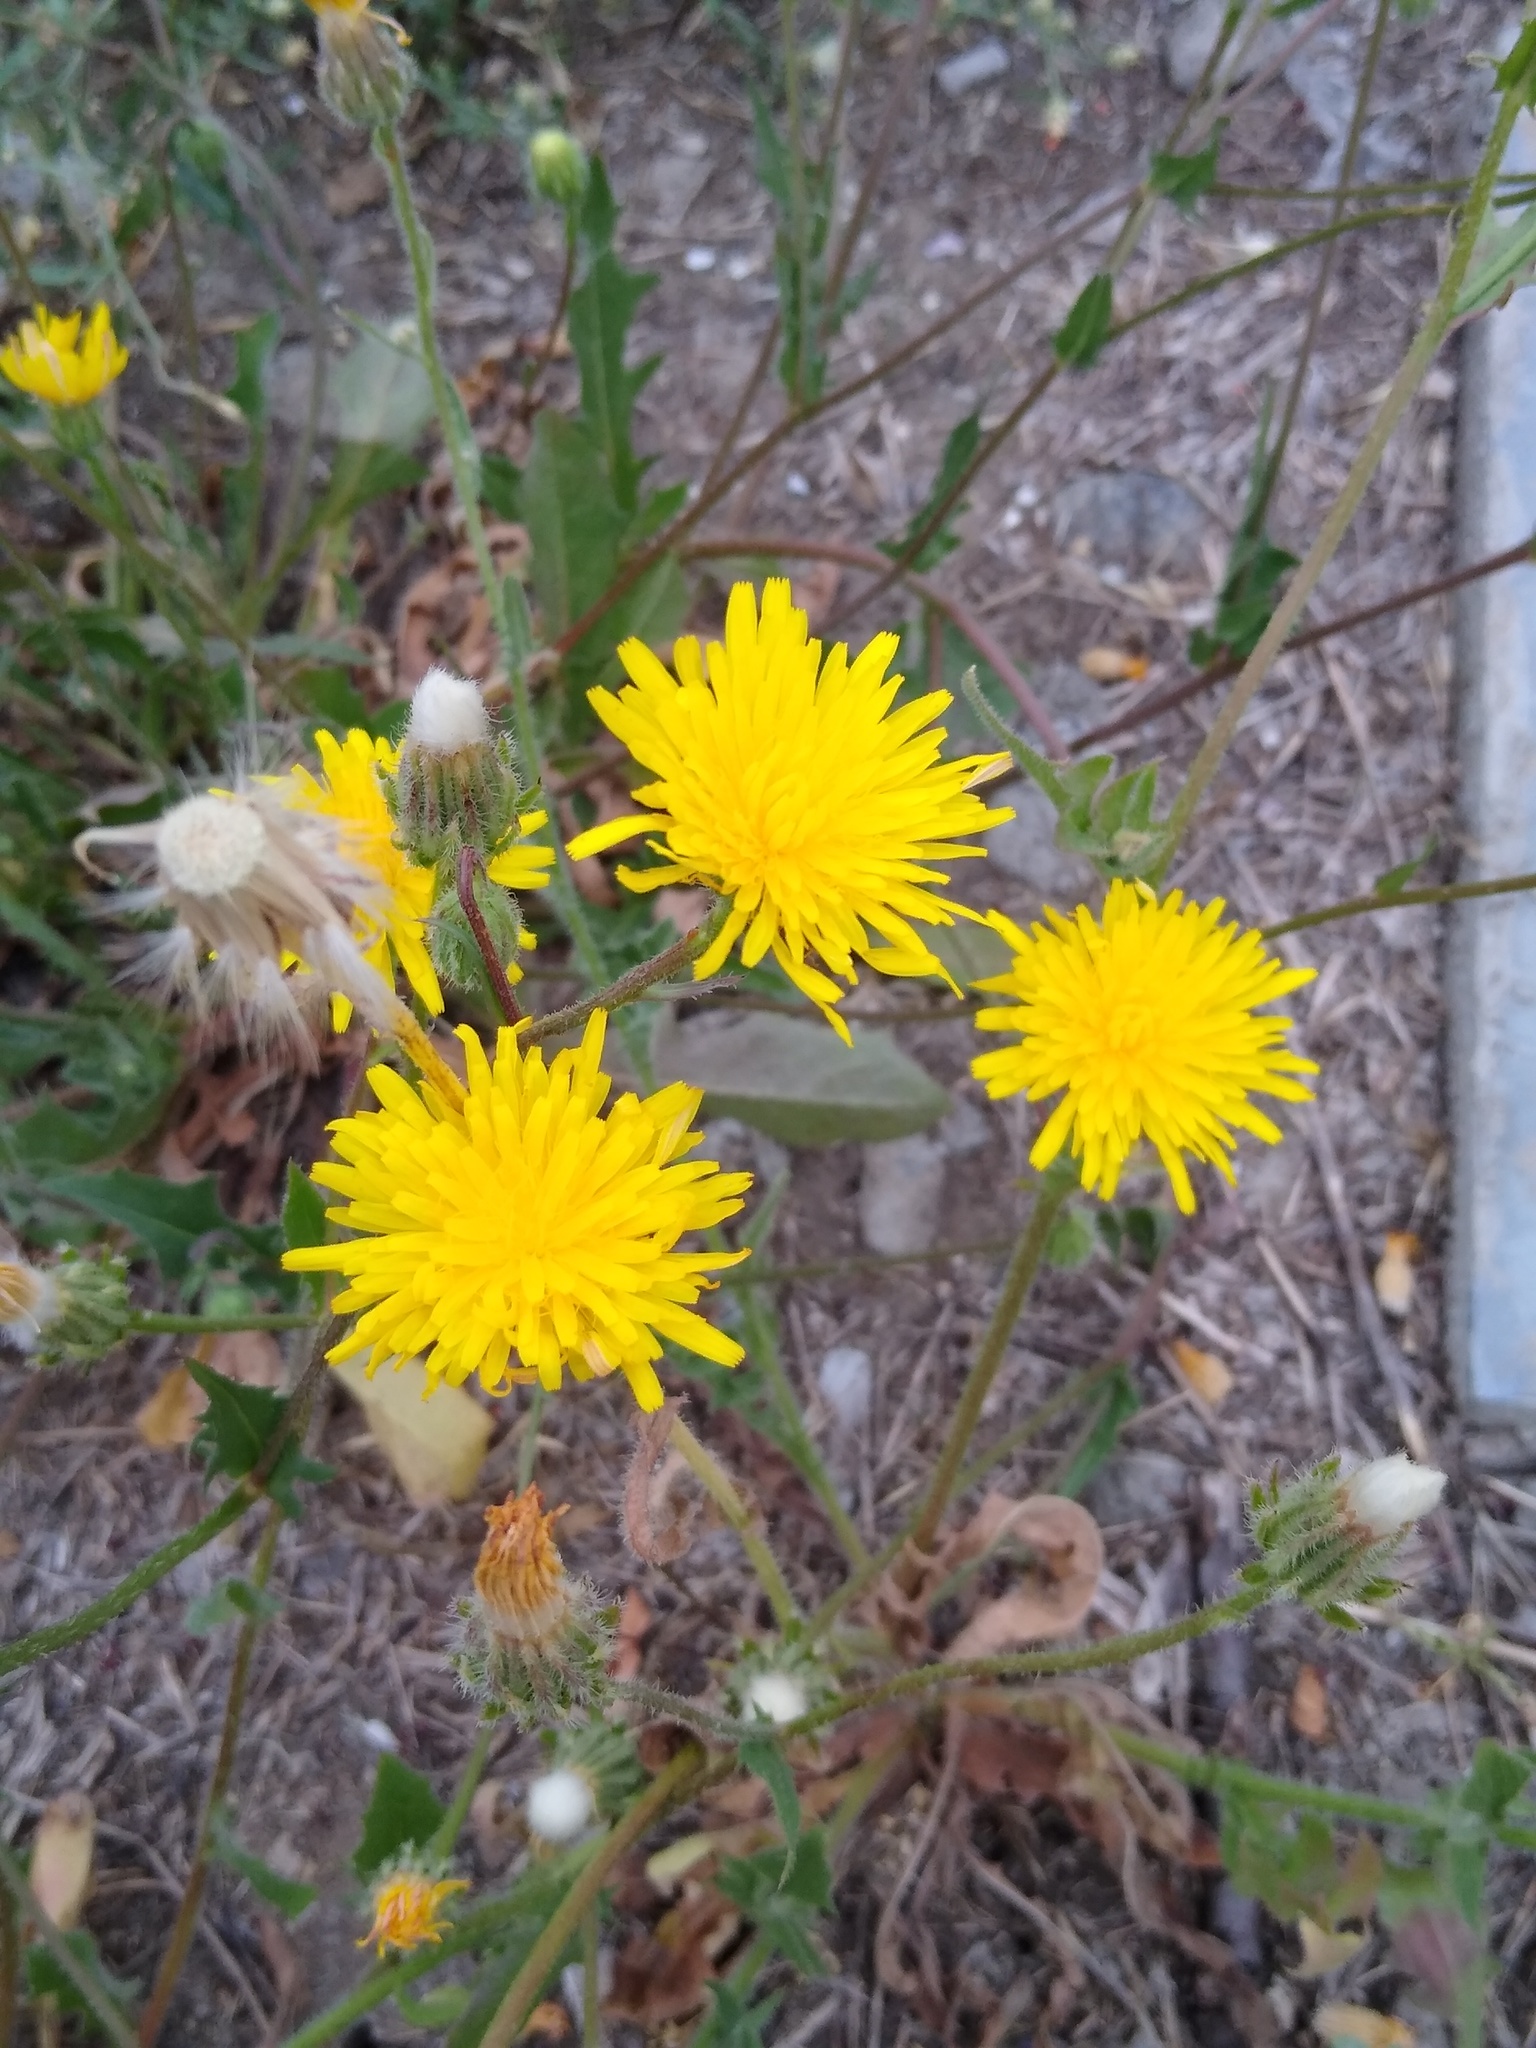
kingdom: Plantae
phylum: Tracheophyta
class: Magnoliopsida
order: Asterales
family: Asteraceae
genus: Crepis
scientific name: Crepis foetida
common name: Stinking hawk's-beard
